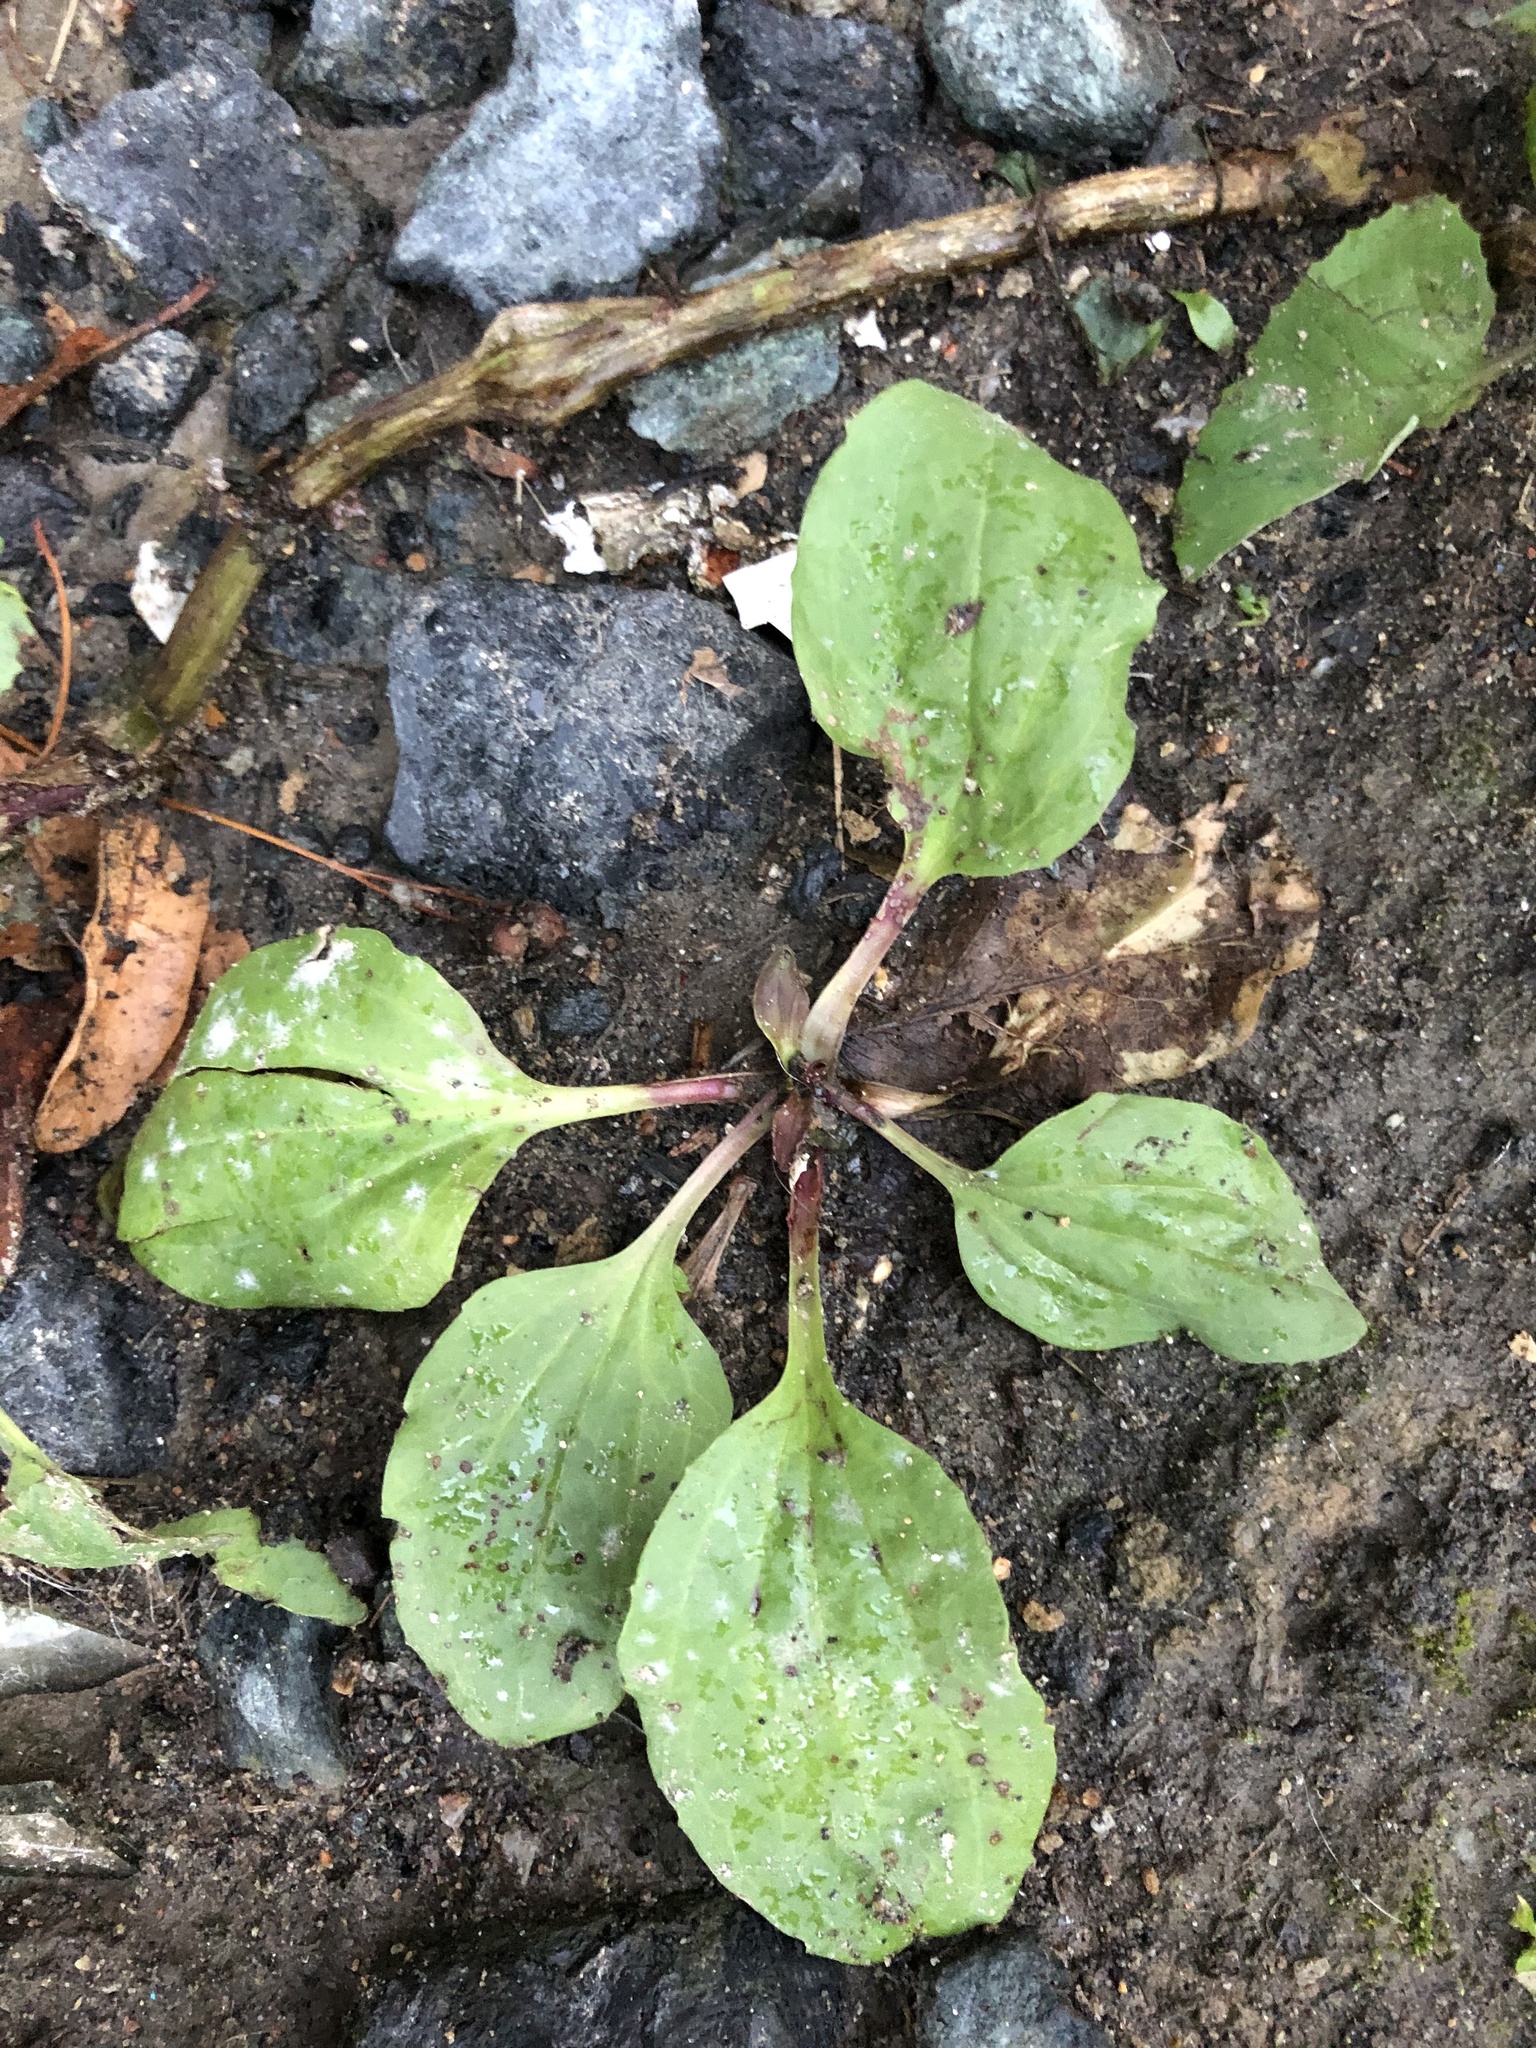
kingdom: Plantae
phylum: Tracheophyta
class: Magnoliopsida
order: Lamiales
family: Plantaginaceae
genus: Plantago
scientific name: Plantago major
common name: Common plantain
